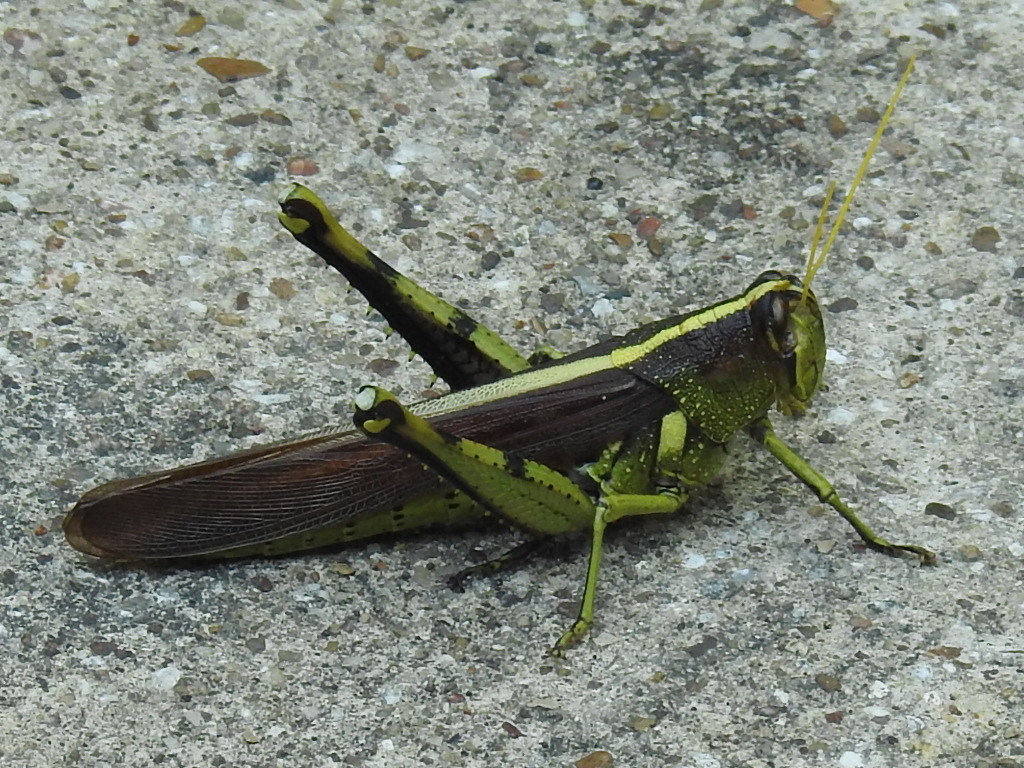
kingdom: Animalia
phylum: Arthropoda
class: Insecta
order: Orthoptera
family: Acrididae
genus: Schistocerca
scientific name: Schistocerca obscura
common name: Obscure bird grasshopper
